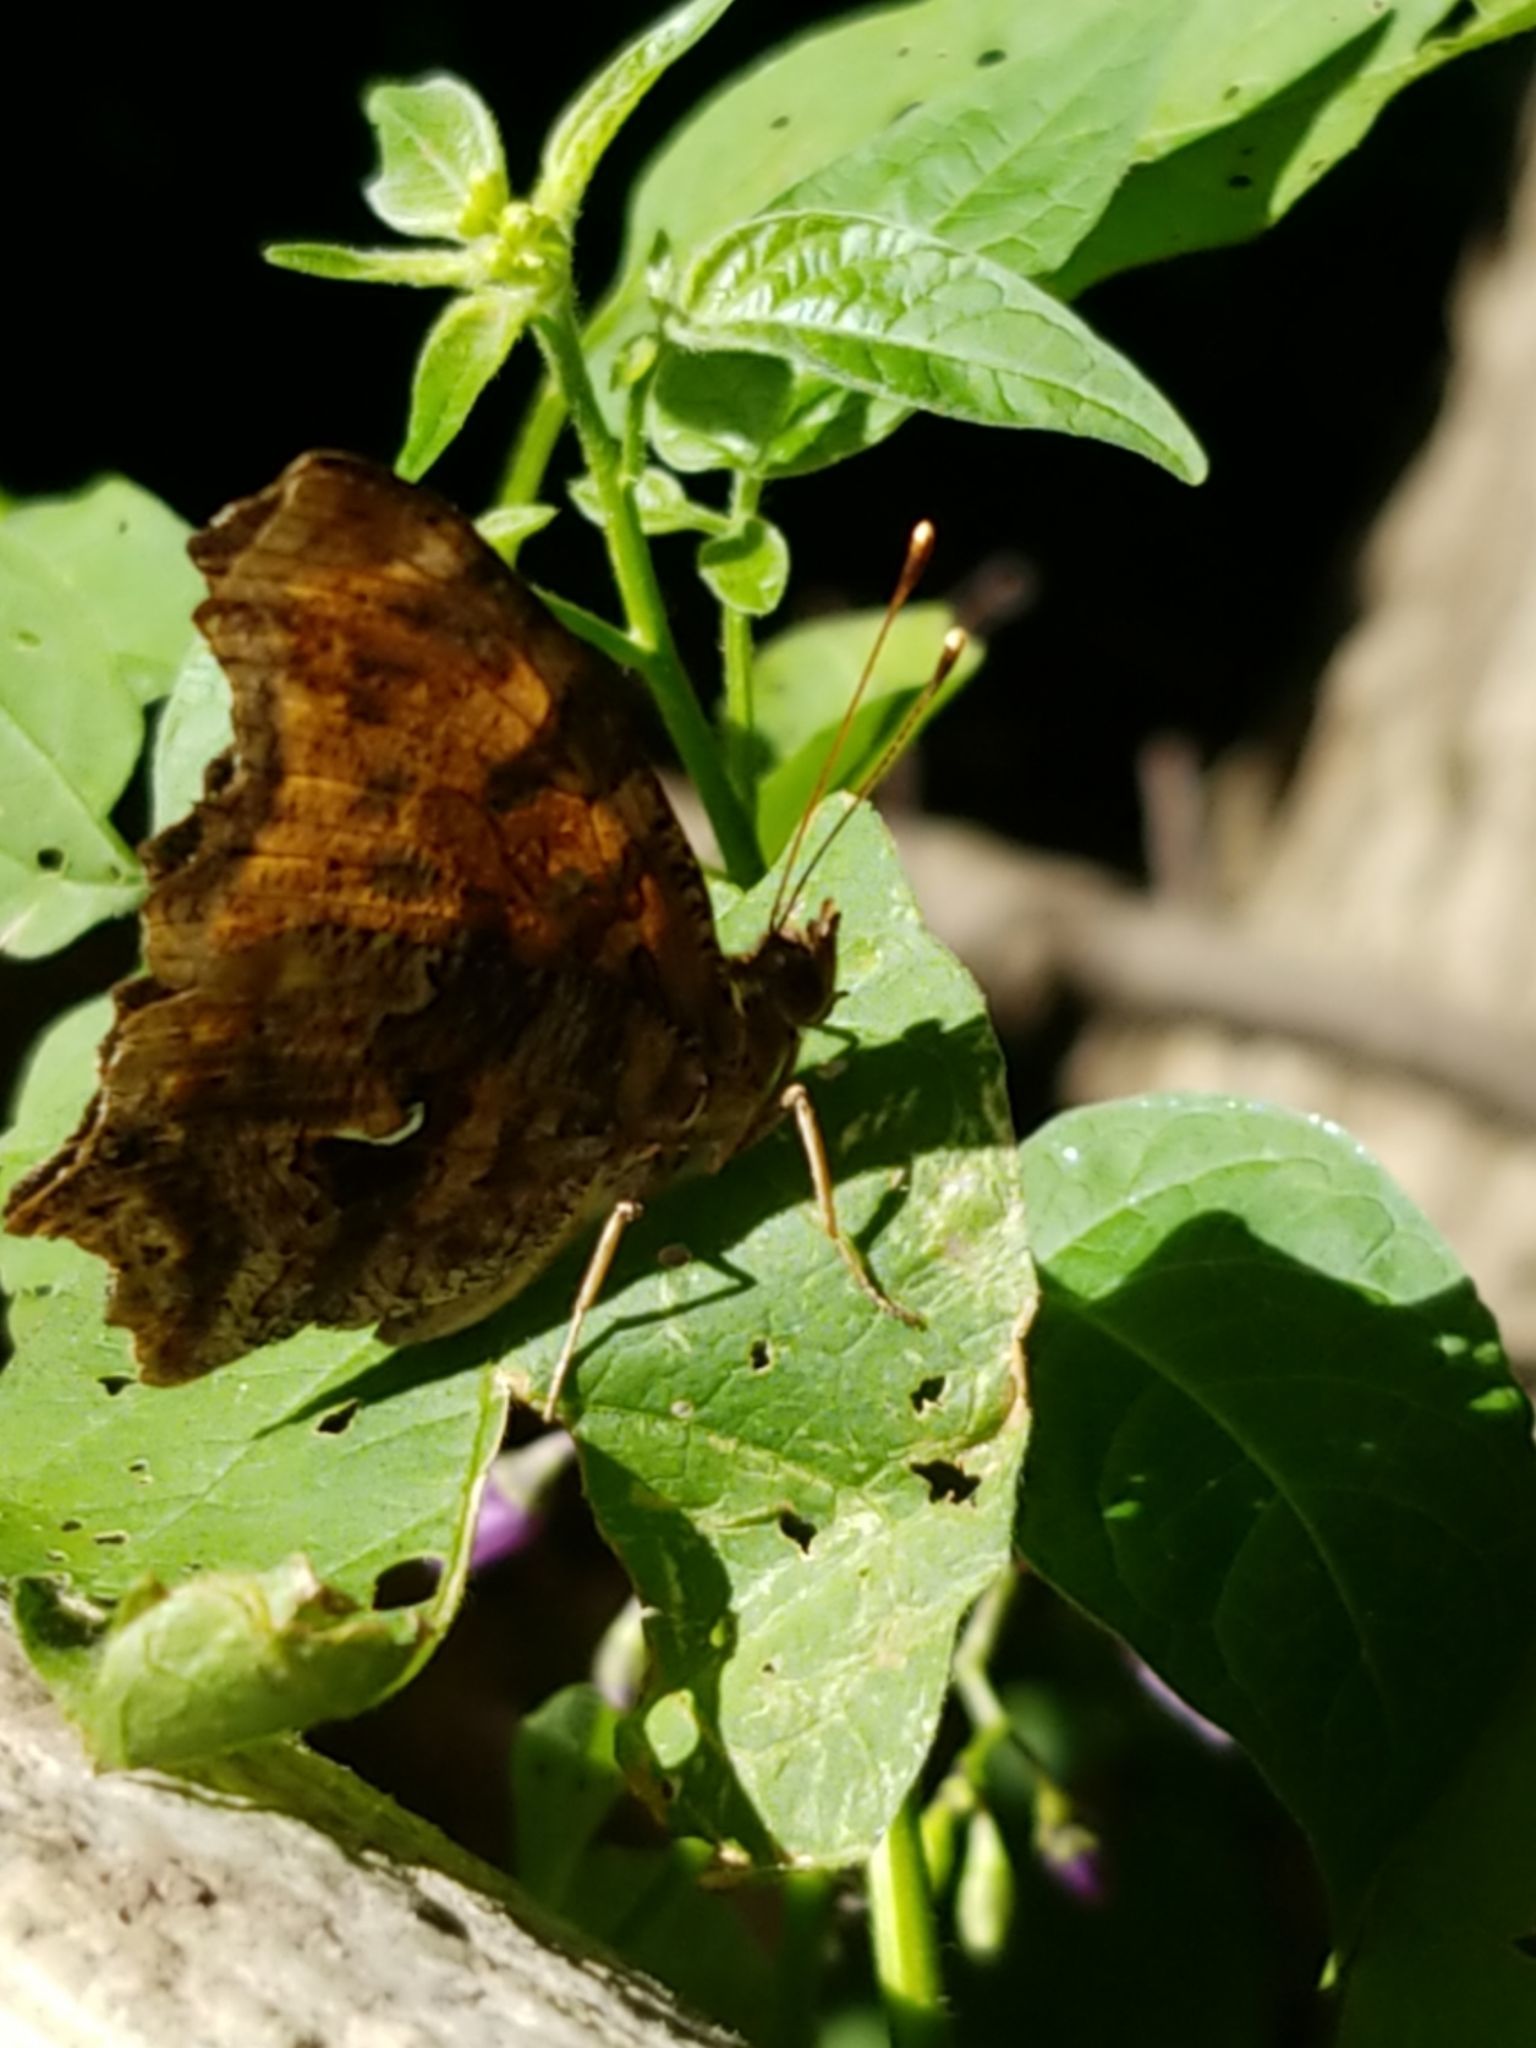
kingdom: Animalia
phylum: Arthropoda
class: Insecta
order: Lepidoptera
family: Nymphalidae
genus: Polygonia
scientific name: Polygonia comma
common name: Eastern comma
